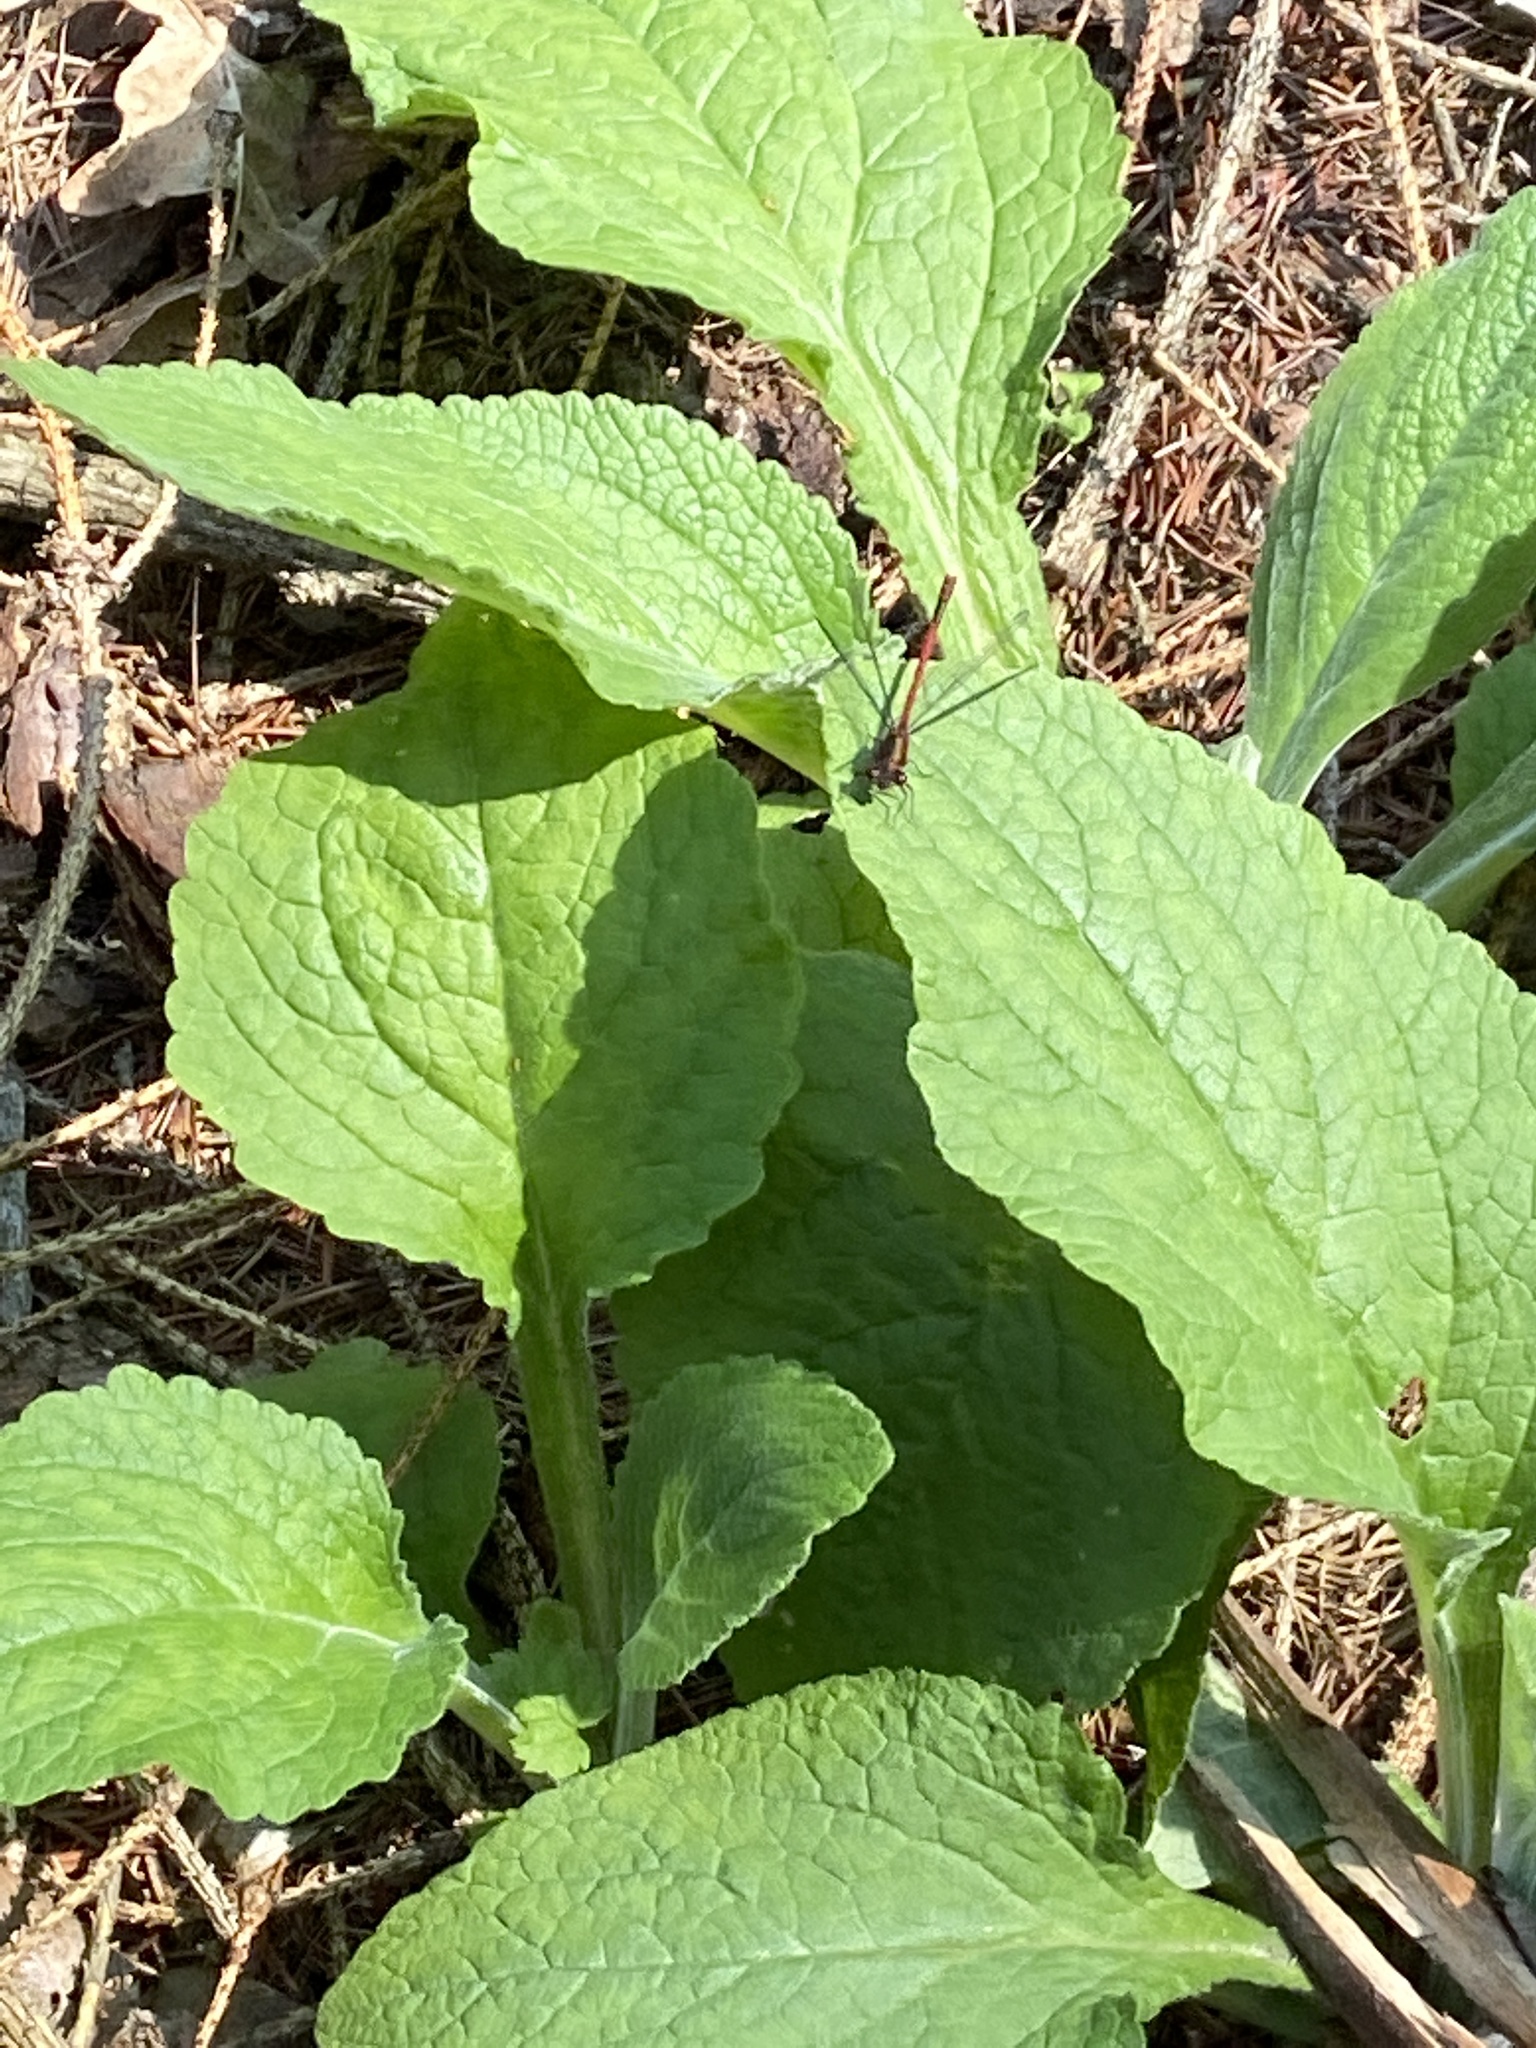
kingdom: Animalia
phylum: Arthropoda
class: Insecta
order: Odonata
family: Coenagrionidae
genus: Pyrrhosoma
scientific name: Pyrrhosoma nymphula
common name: Large red damsel
